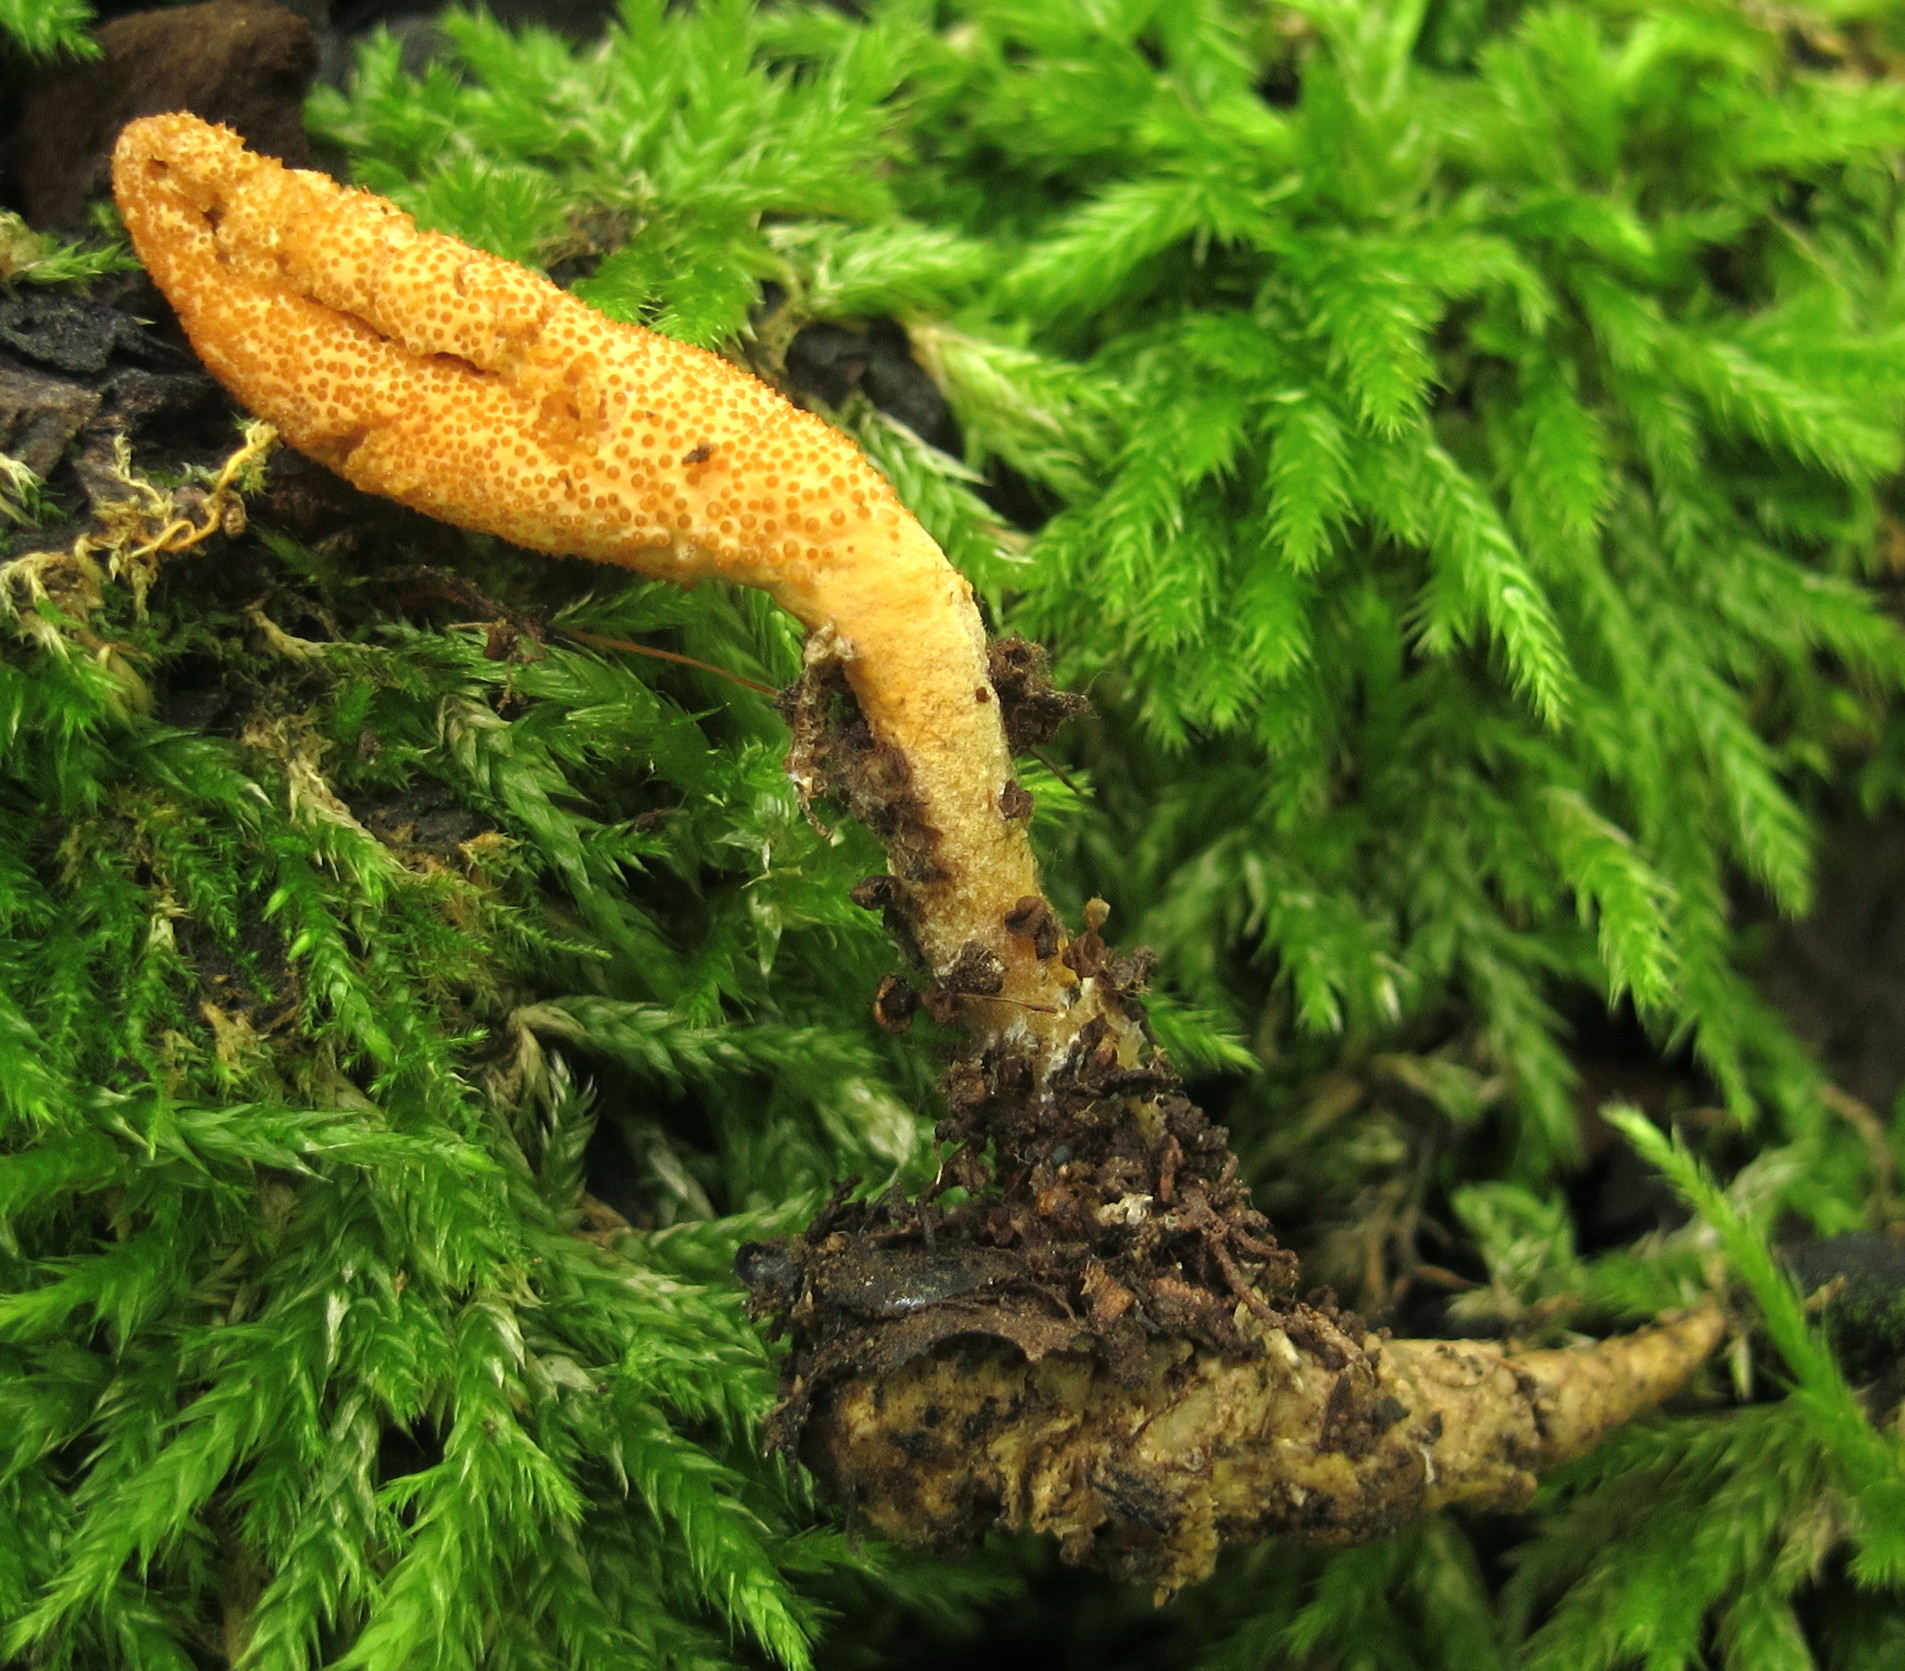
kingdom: Fungi
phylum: Ascomycota
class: Sordariomycetes
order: Hypocreales
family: Cordycipitaceae
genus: Cordyceps
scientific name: Cordyceps militaris
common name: Scarlet caterpillar fungus
